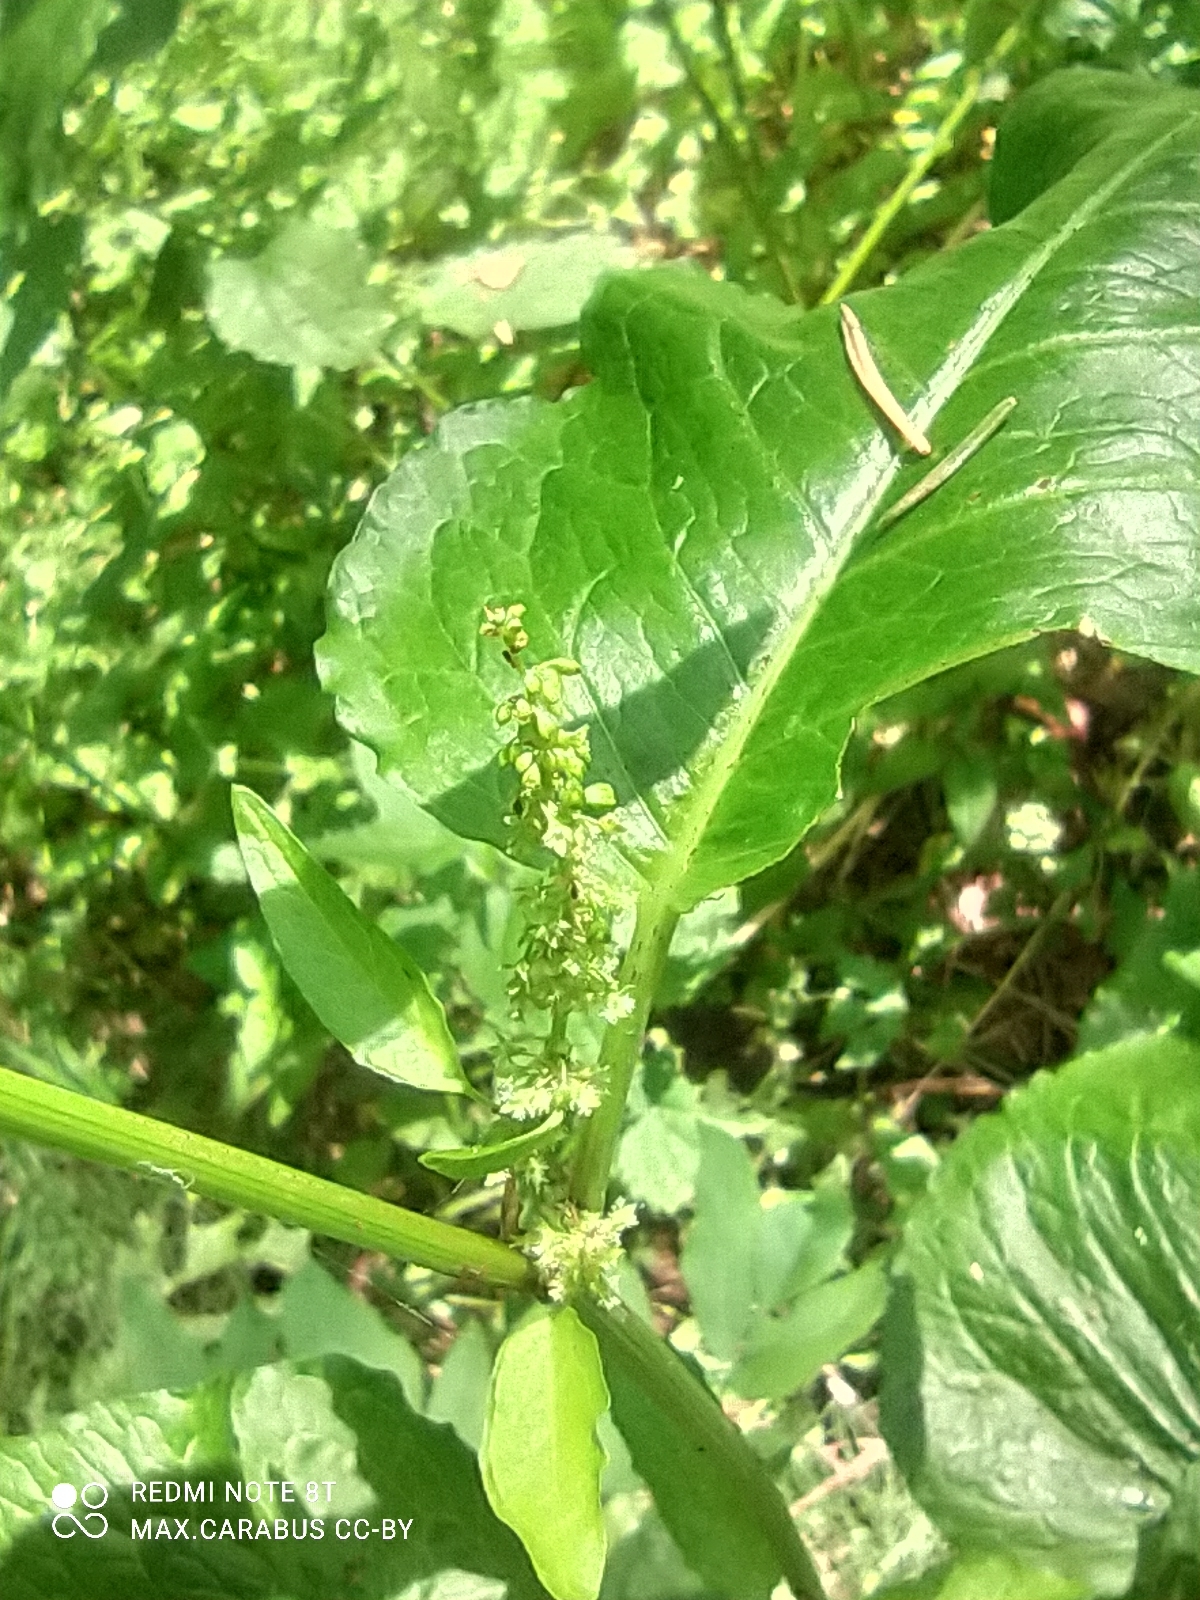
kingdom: Plantae
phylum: Tracheophyta
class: Magnoliopsida
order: Caryophyllales
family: Polygonaceae
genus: Rumex
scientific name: Rumex obtusifolius
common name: Bitter dock
